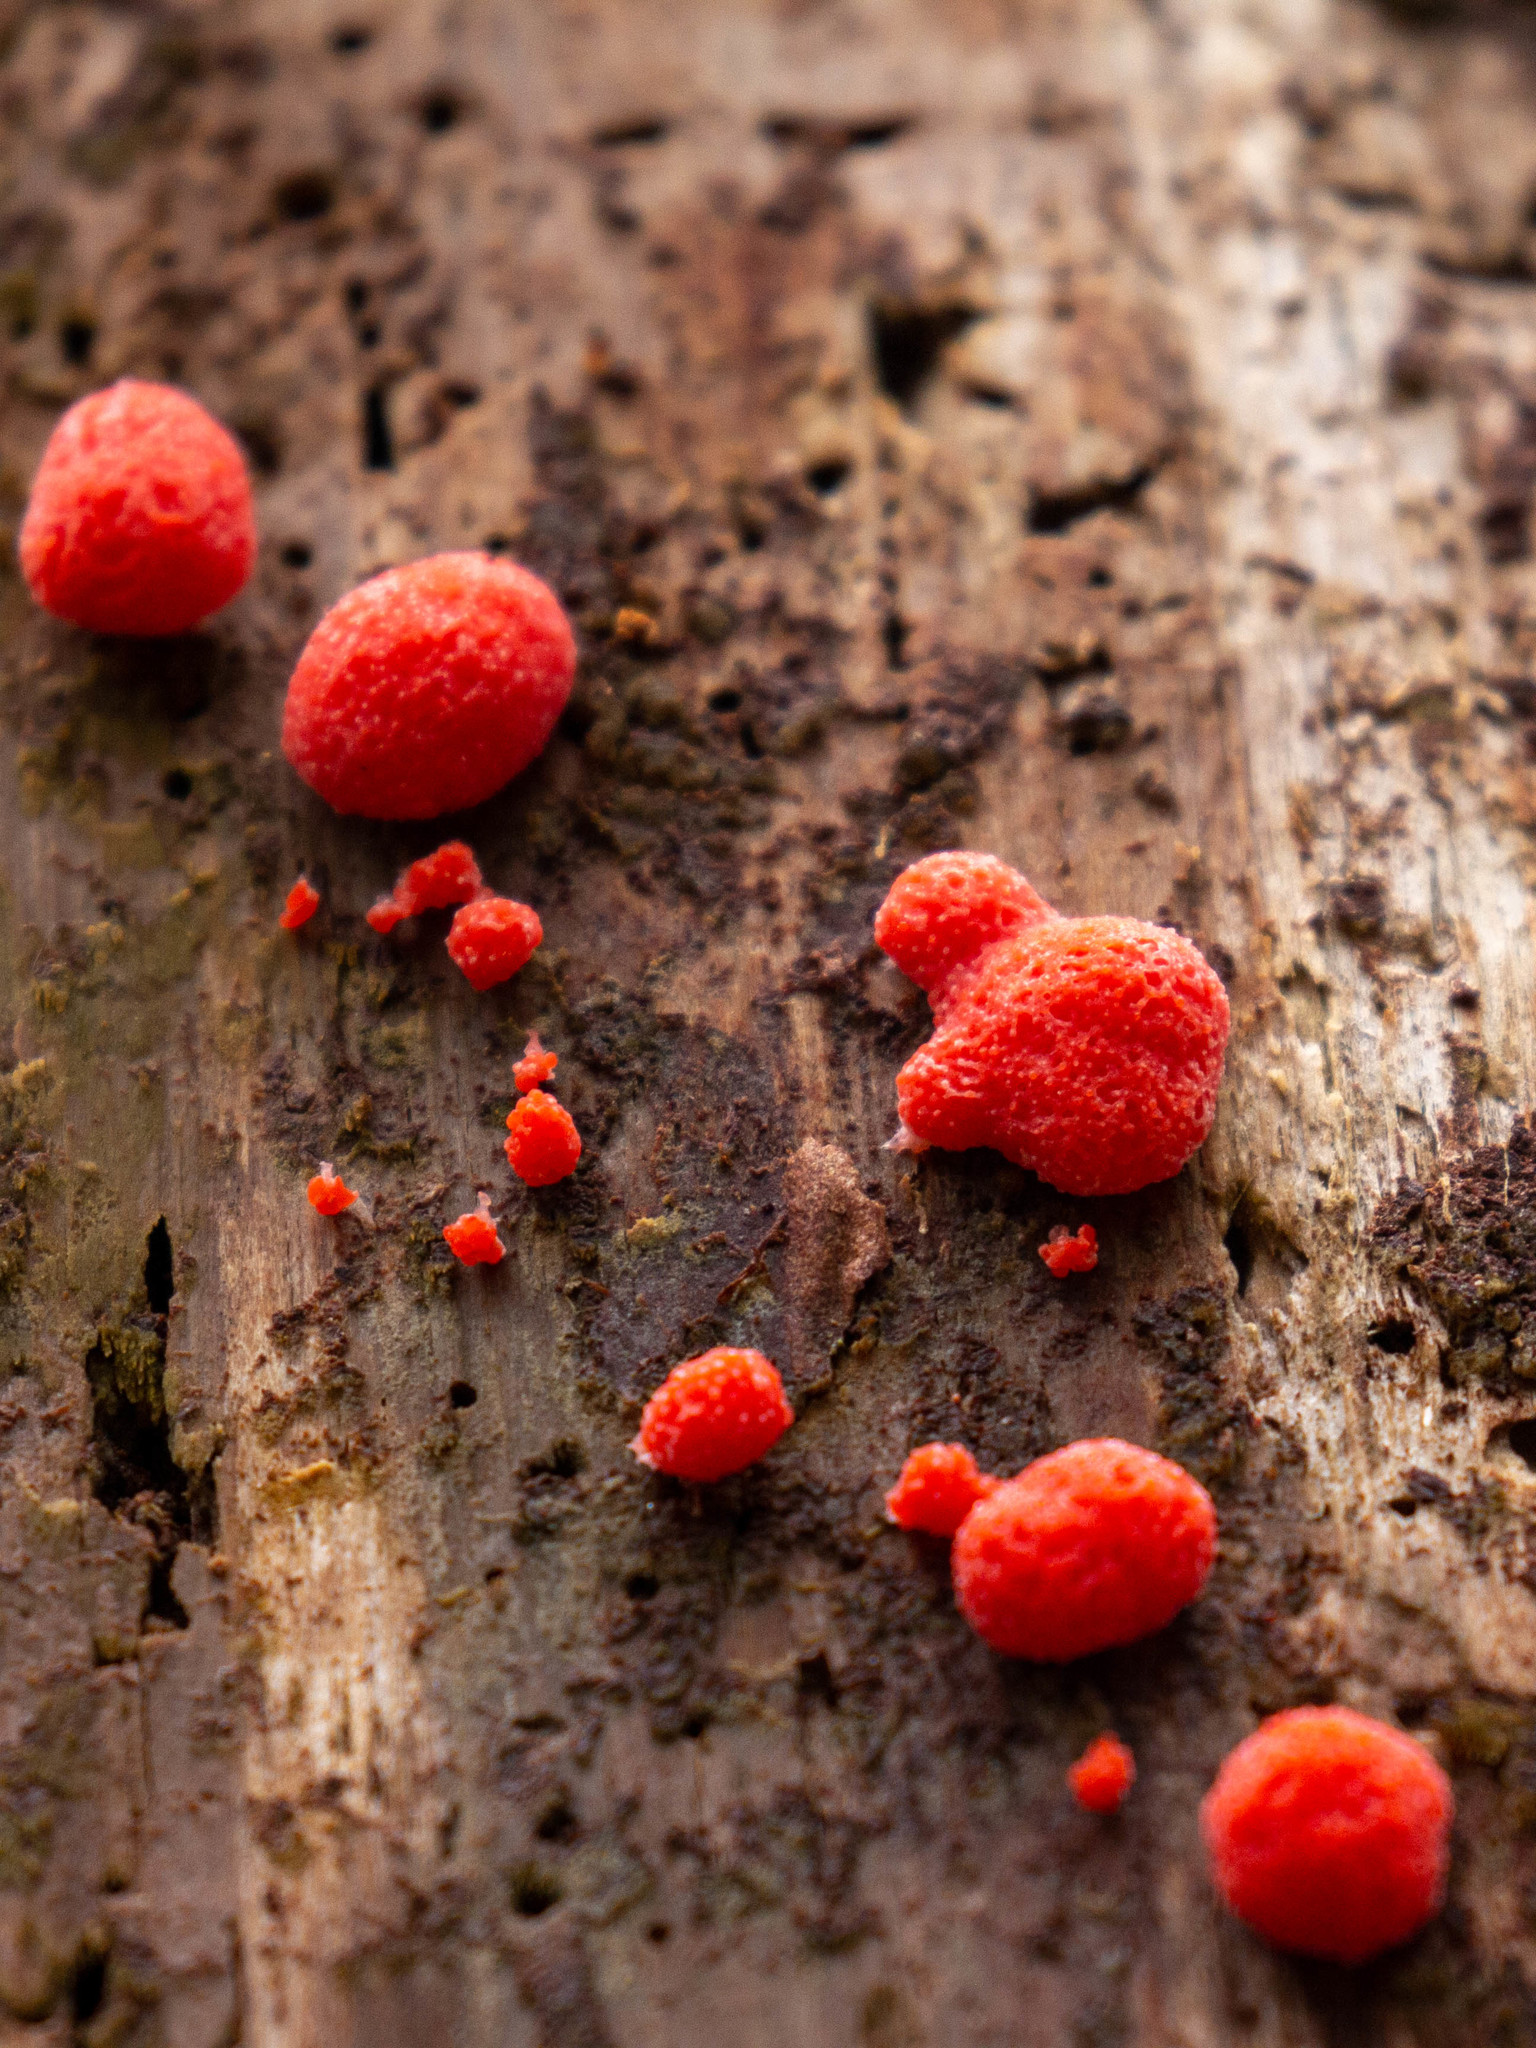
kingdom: Protozoa
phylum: Mycetozoa
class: Myxomycetes
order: Cribrariales
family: Tubiferaceae
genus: Tubifera
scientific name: Tubifera ferruginosa
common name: Red raspberry slime mold
